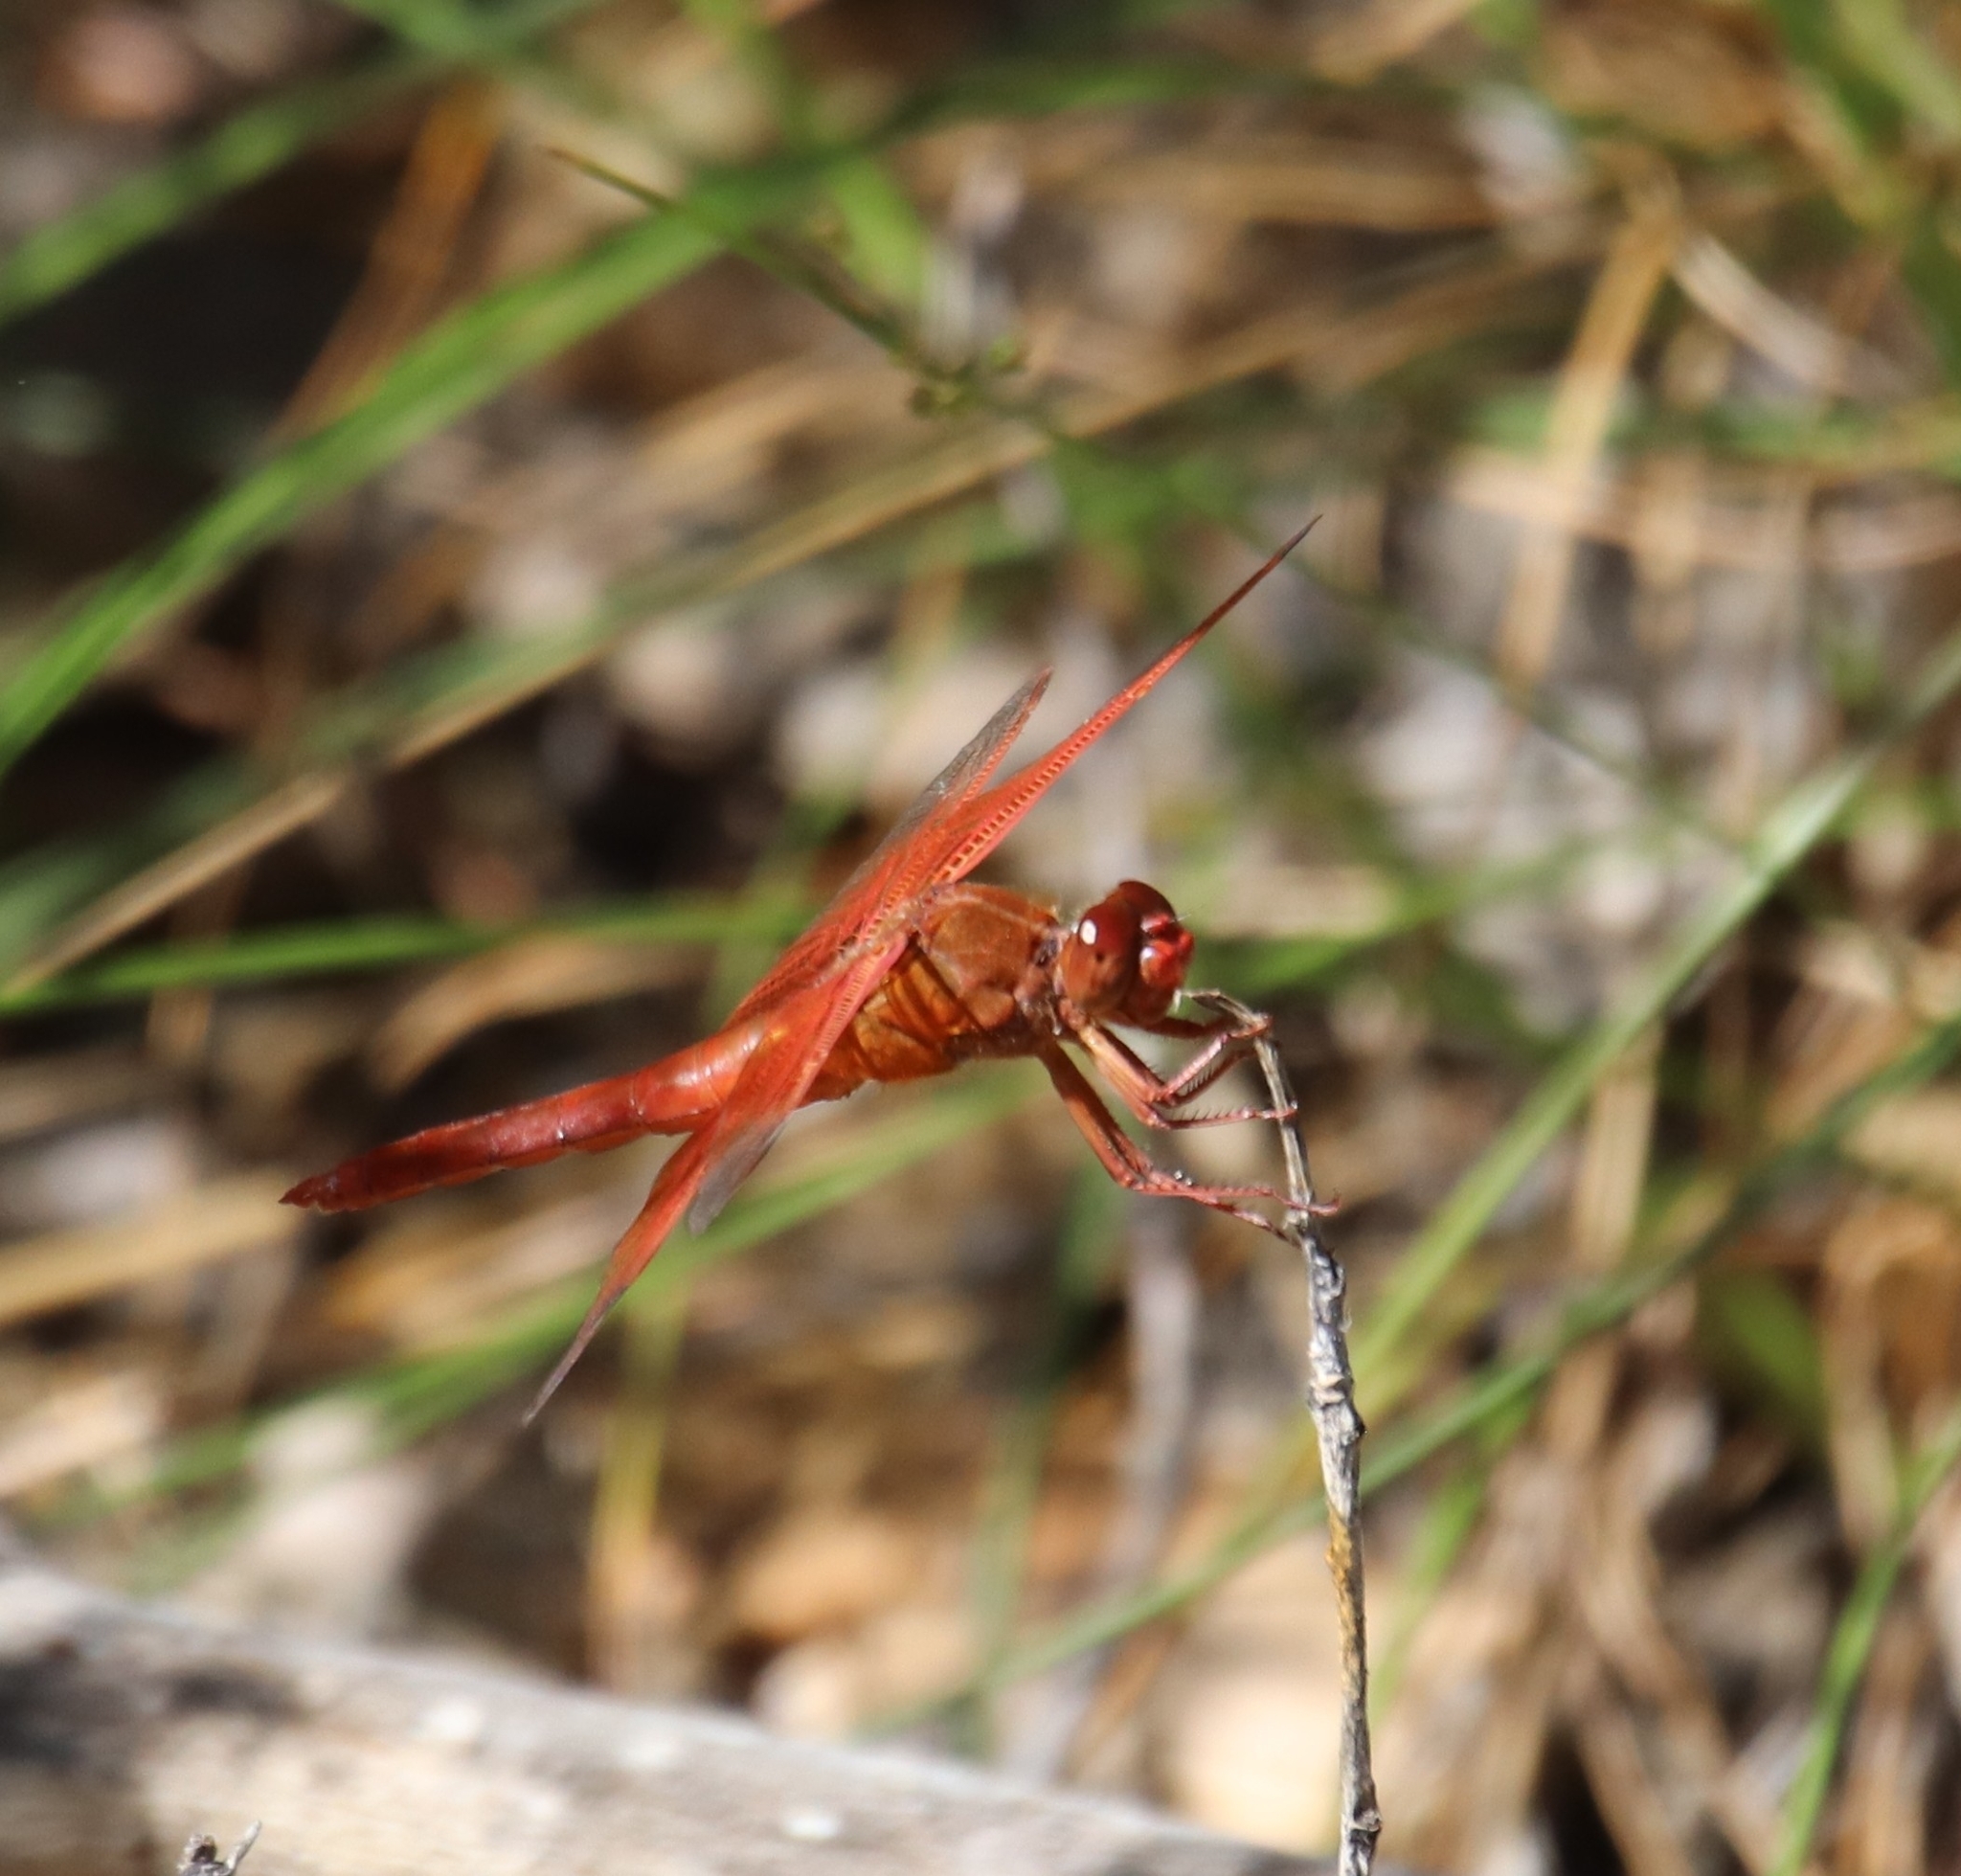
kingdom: Animalia
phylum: Arthropoda
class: Insecta
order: Odonata
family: Libellulidae
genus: Libellula
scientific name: Libellula saturata
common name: Flame skimmer
